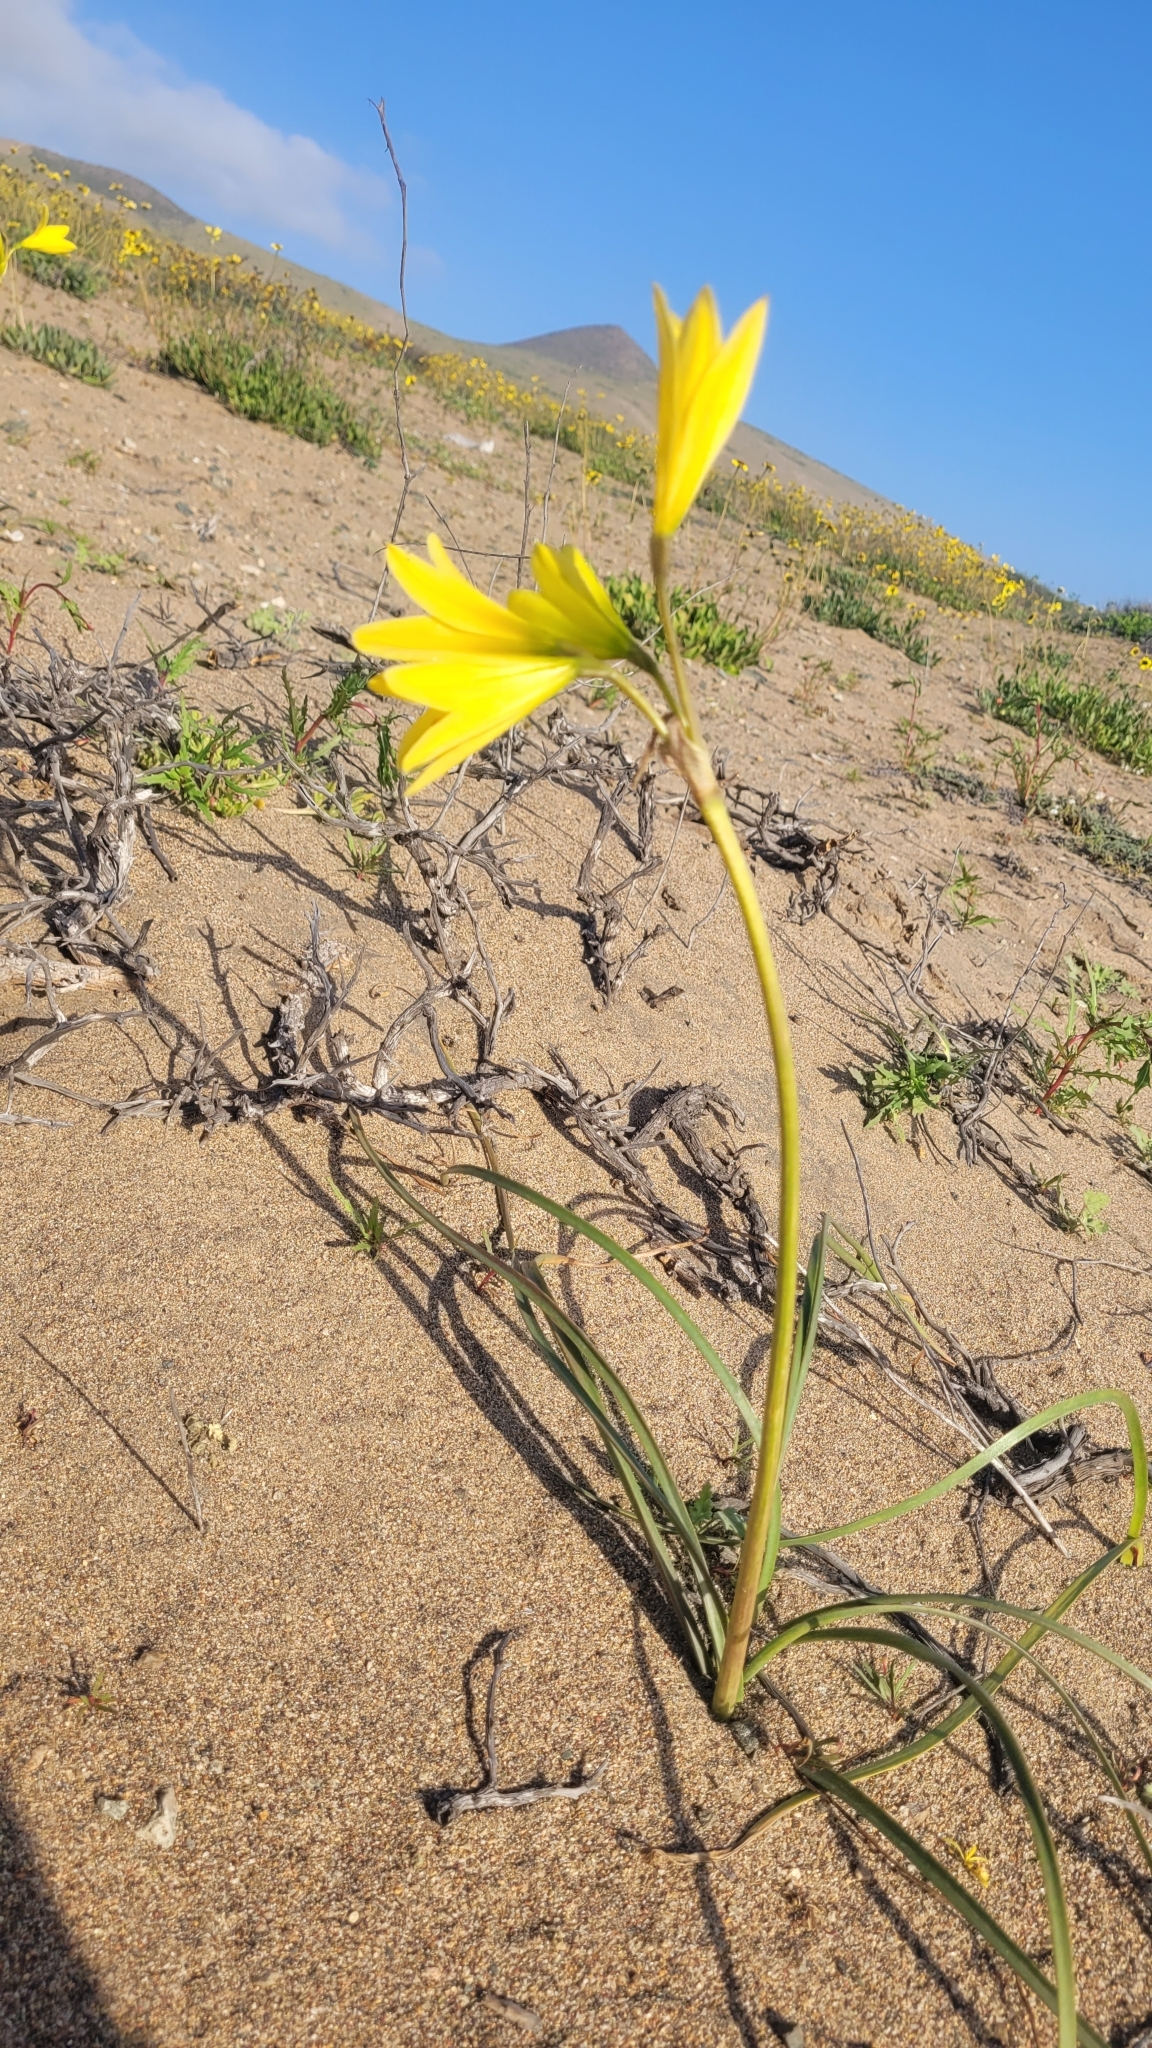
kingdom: Plantae
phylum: Tracheophyta
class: Liliopsida
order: Asparagales
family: Amaryllidaceae
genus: Zephyranthes
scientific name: Zephyranthes bagnoldii
